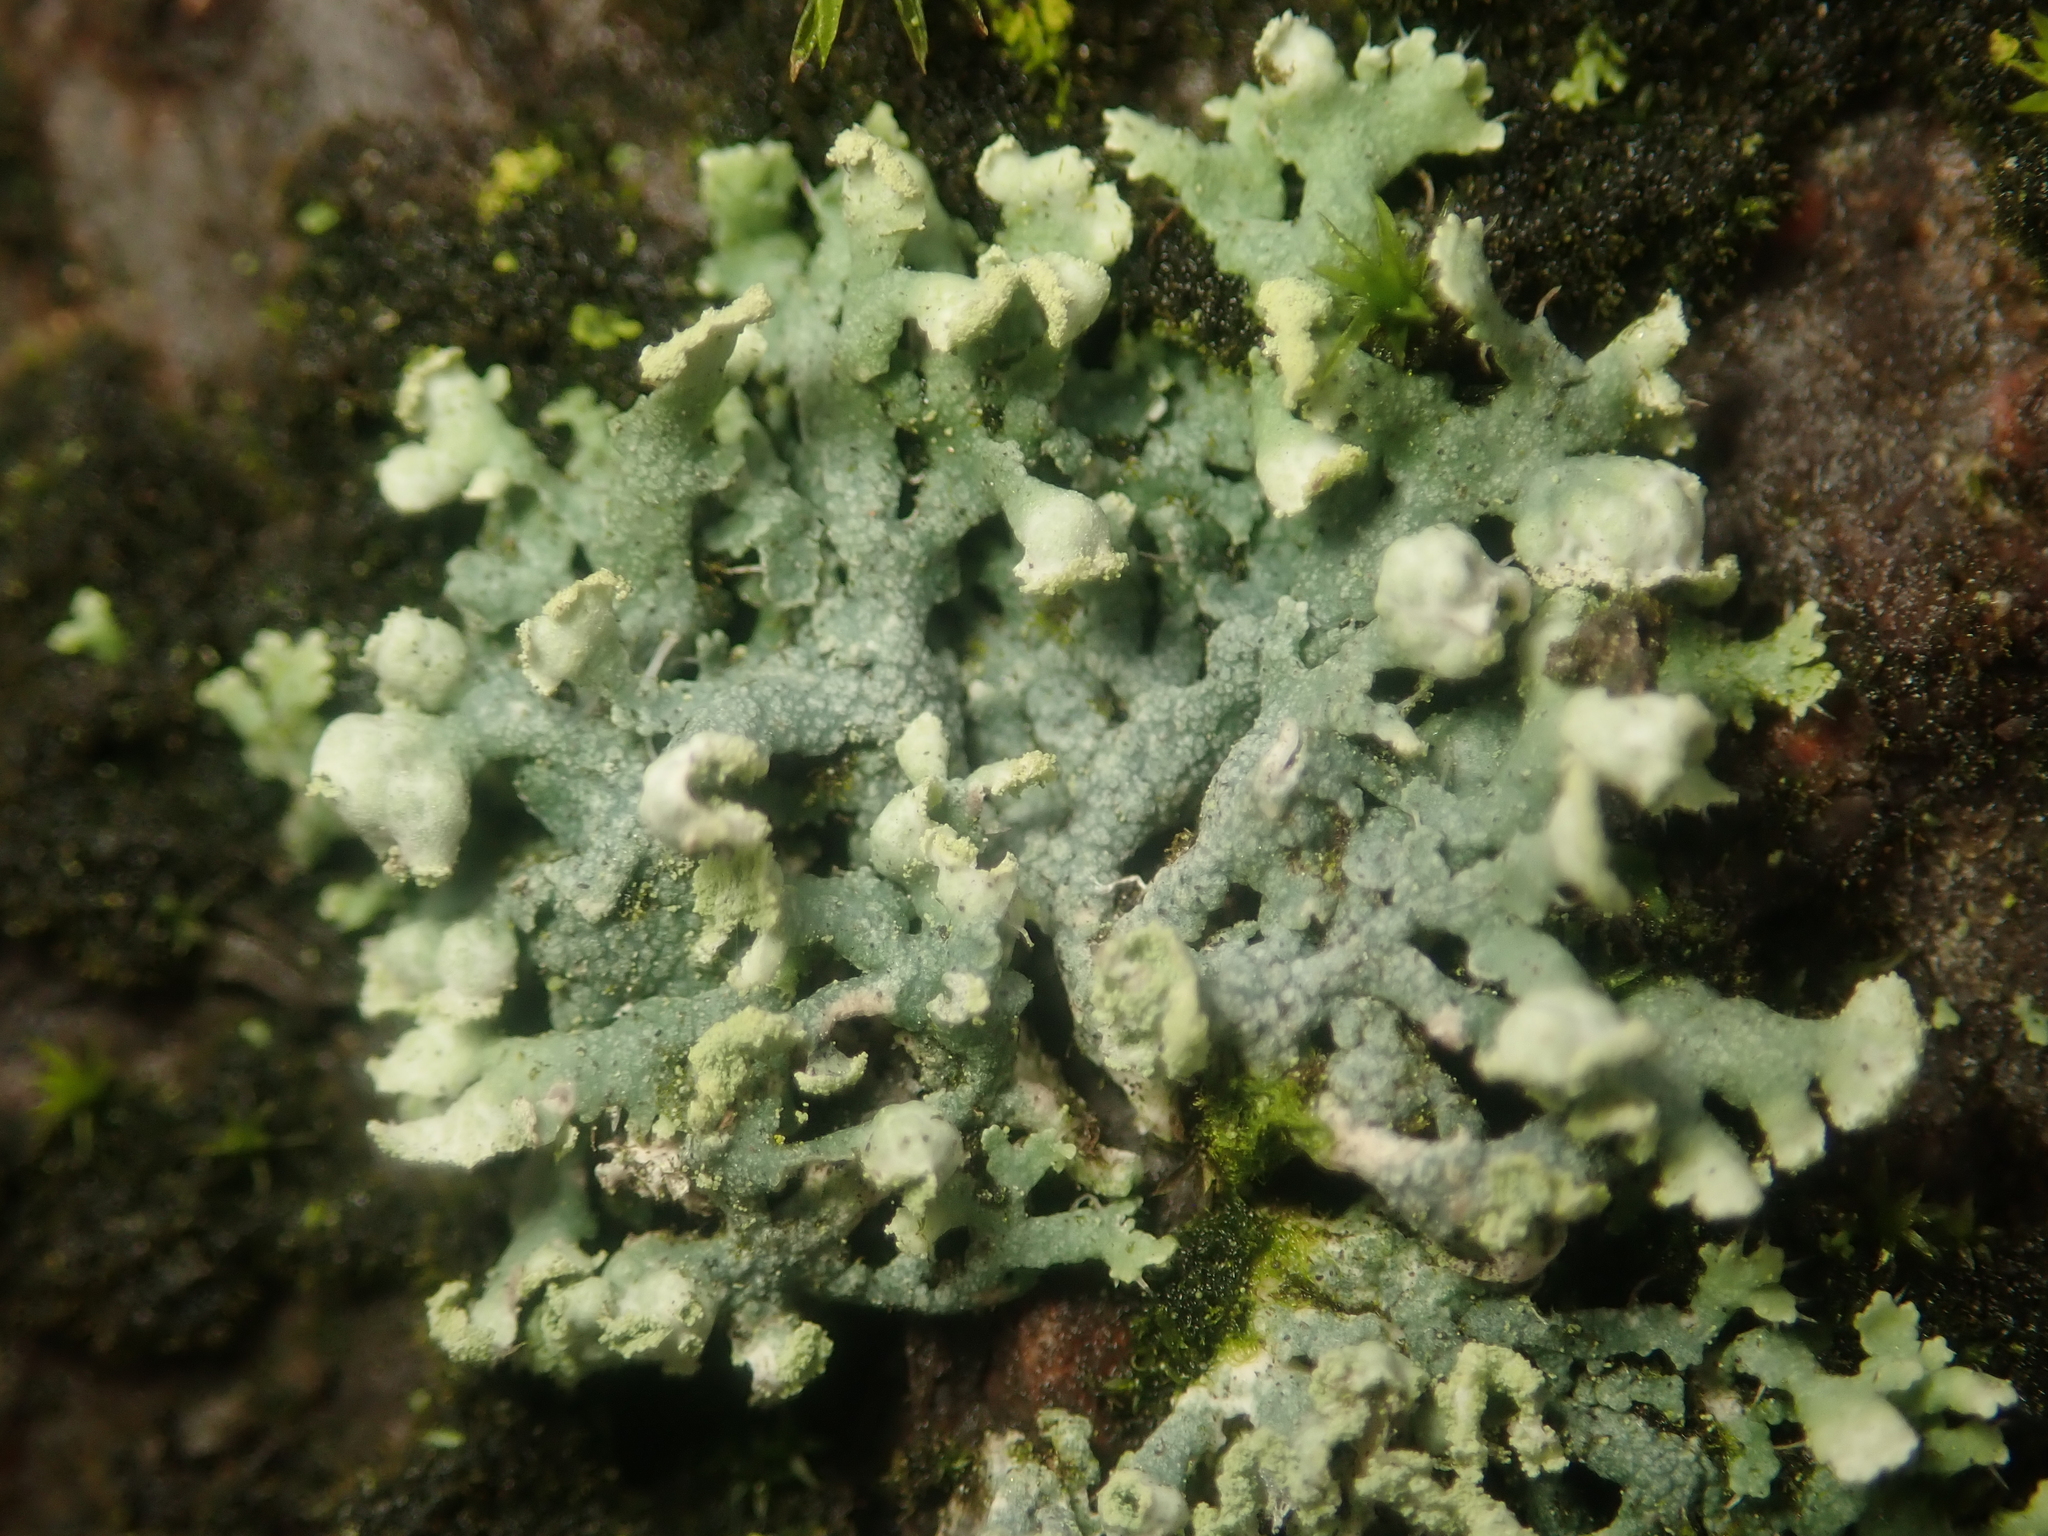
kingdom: Fungi
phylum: Ascomycota
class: Lecanoromycetes
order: Caliciales
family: Physciaceae
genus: Physcia
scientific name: Physcia adscendens
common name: Hooded rosette lichen
